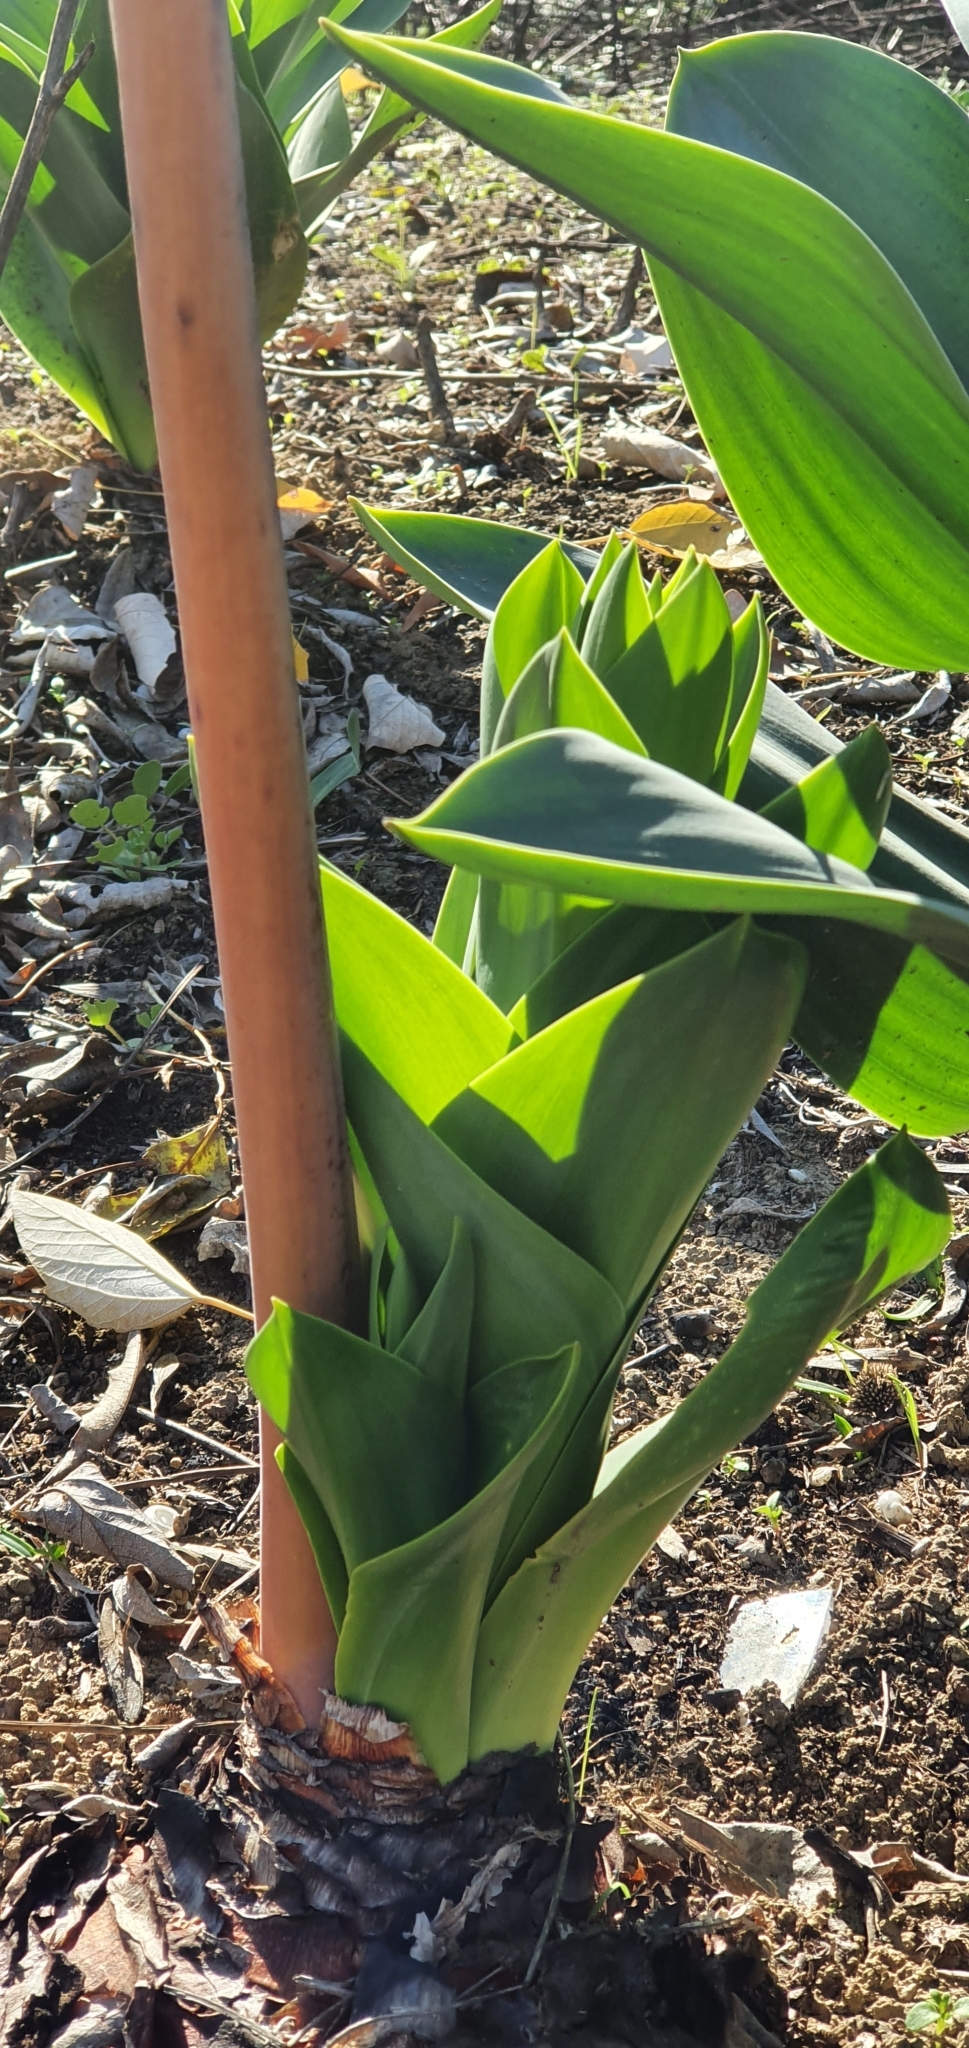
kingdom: Plantae
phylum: Tracheophyta
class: Liliopsida
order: Asparagales
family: Asparagaceae
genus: Drimia
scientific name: Drimia numidica
